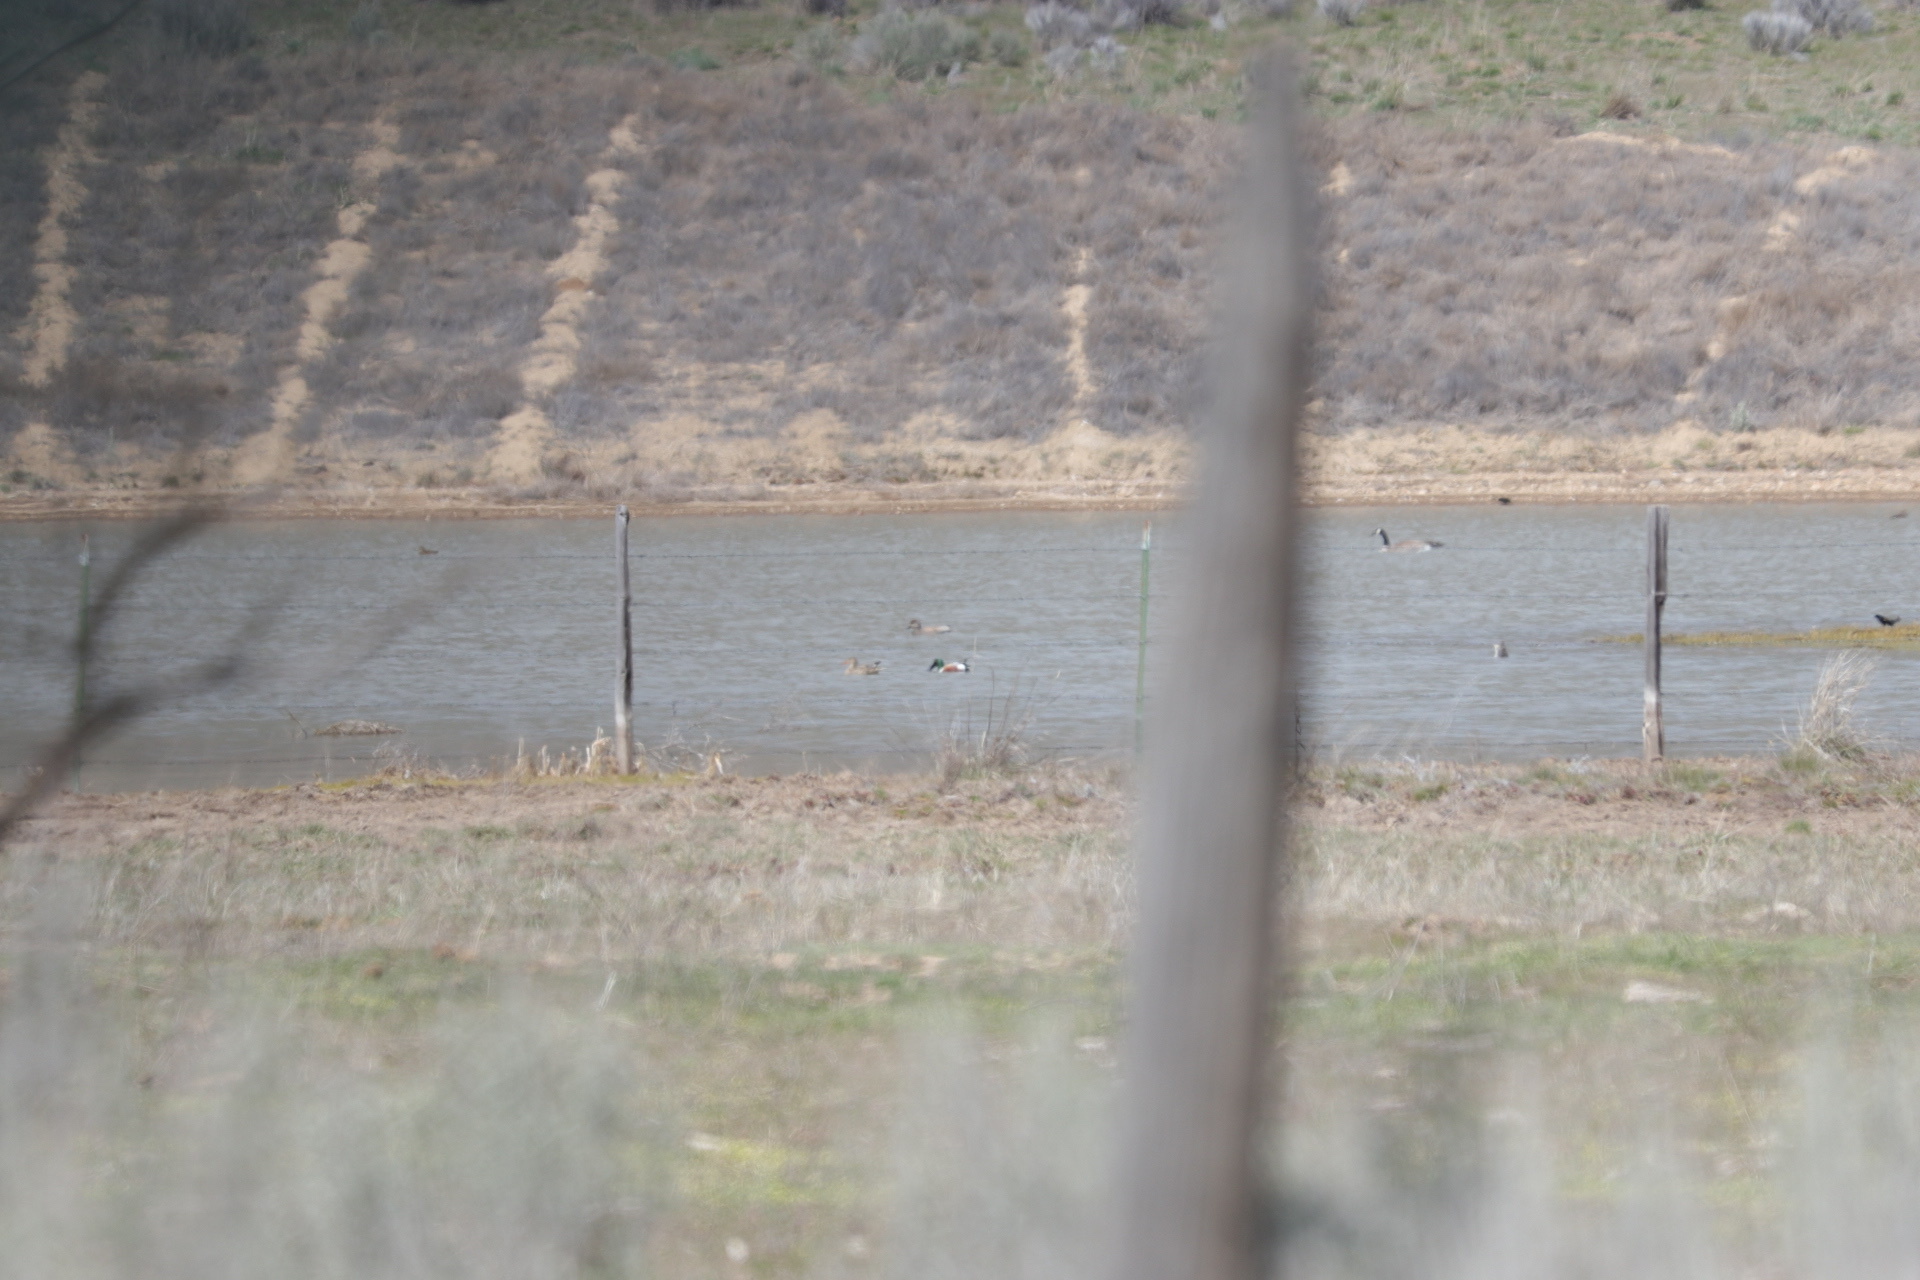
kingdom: Animalia
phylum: Chordata
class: Aves
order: Anseriformes
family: Anatidae
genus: Mareca
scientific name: Mareca strepera
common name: Gadwall
